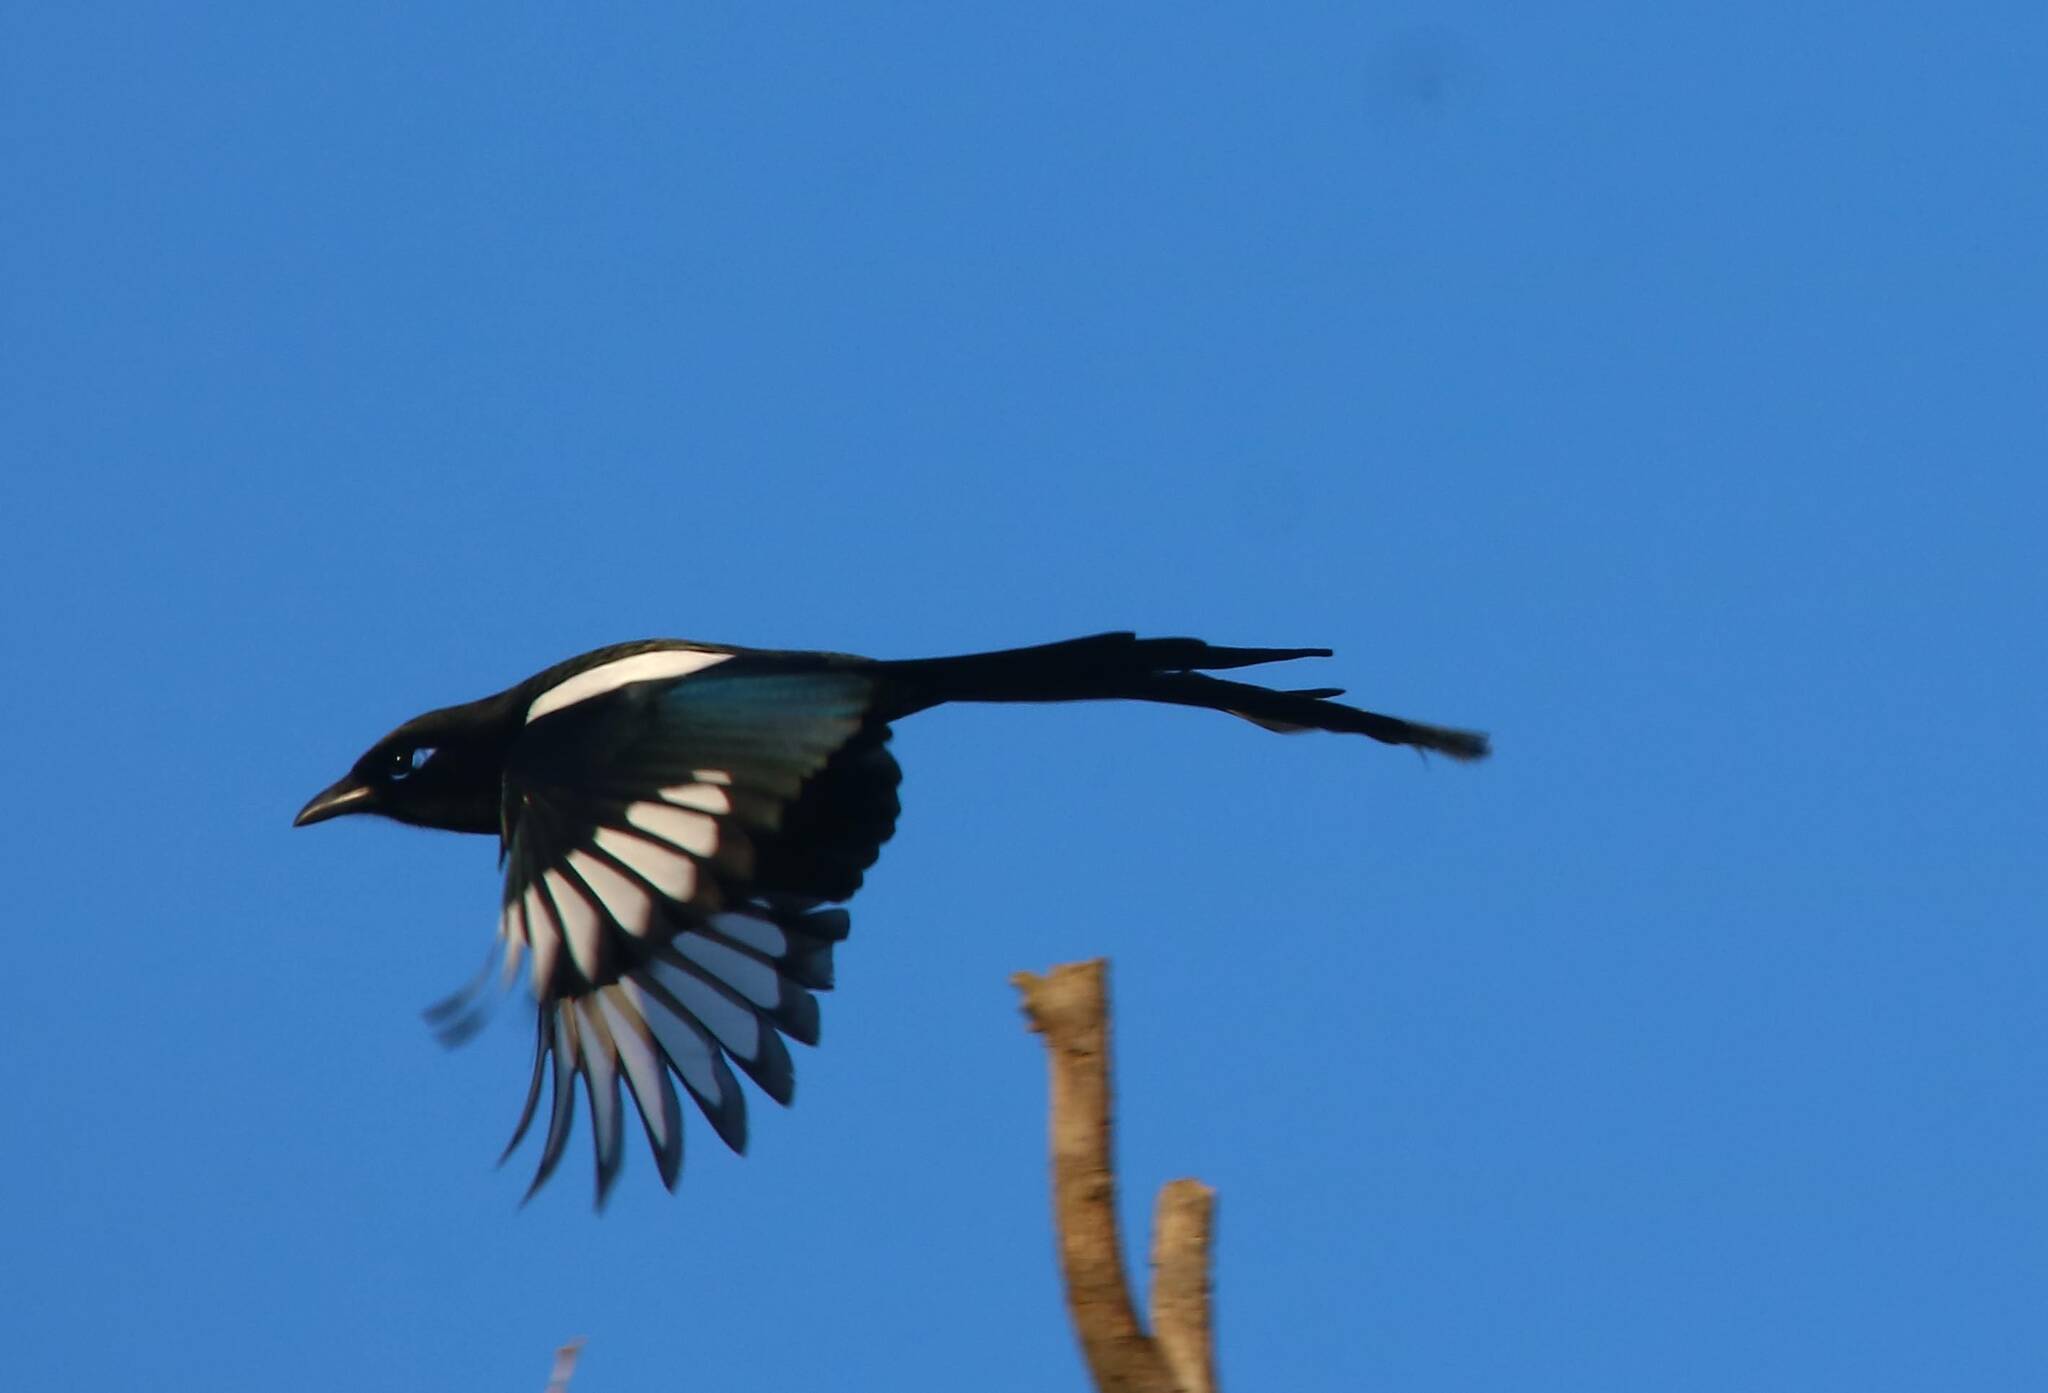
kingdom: Animalia
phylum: Chordata
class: Aves
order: Passeriformes
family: Corvidae
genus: Pica
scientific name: Pica mauritanica
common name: Maghreb magpie
